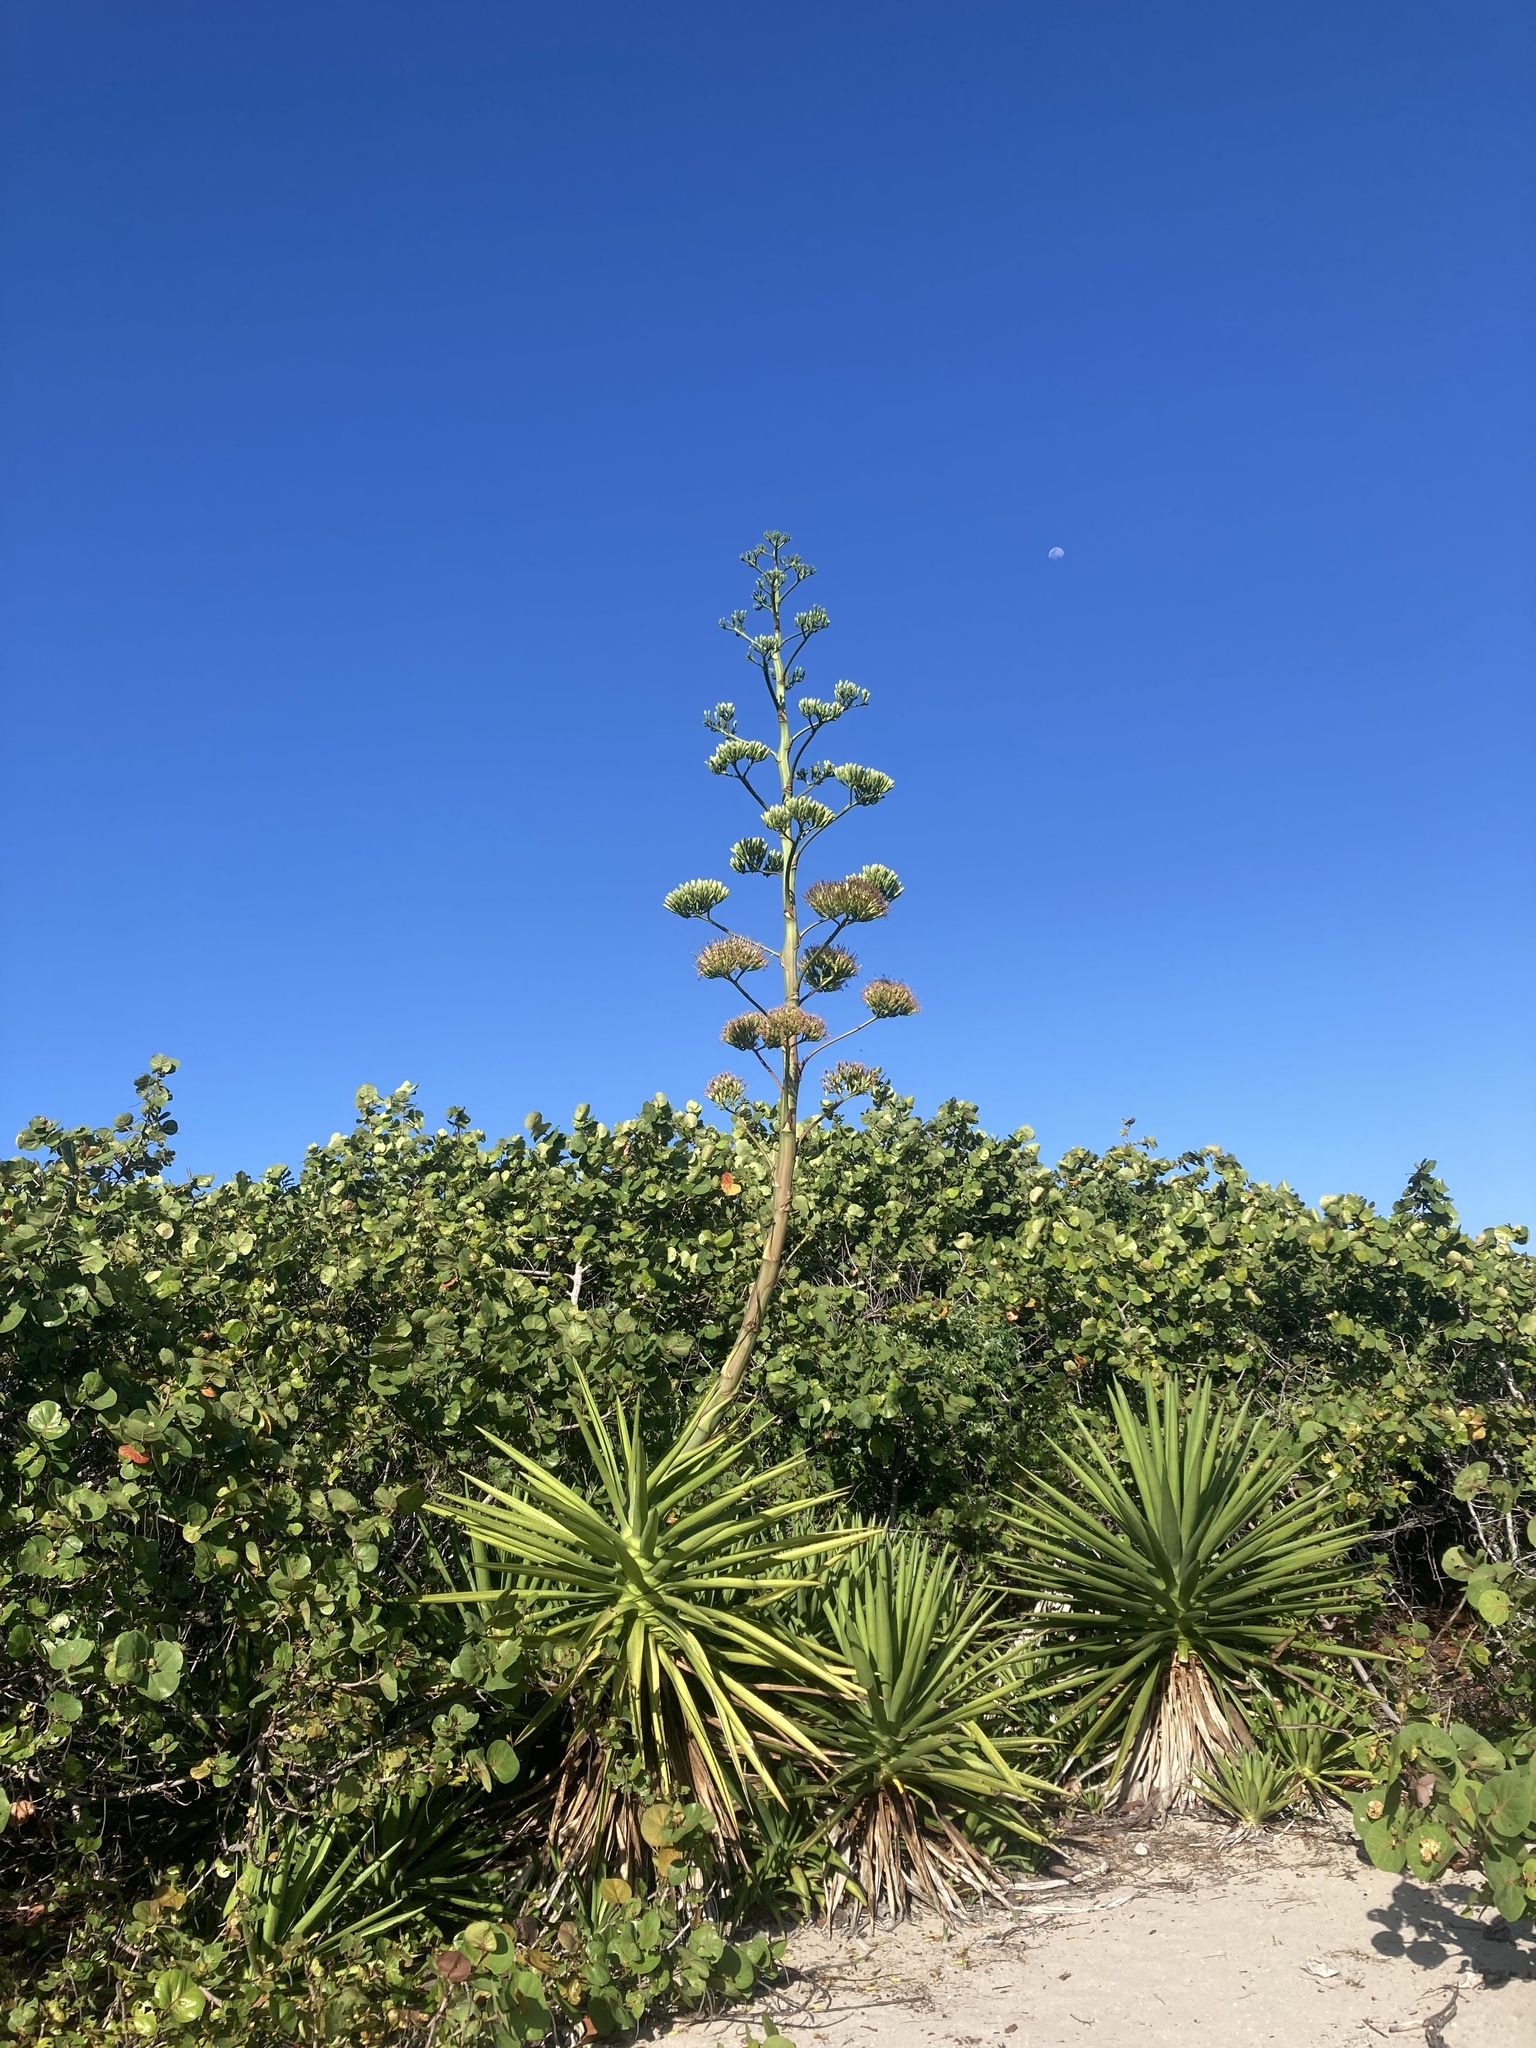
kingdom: Plantae
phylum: Tracheophyta
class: Liliopsida
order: Asparagales
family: Asparagaceae
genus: Agave
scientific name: Agave decipiens
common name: False sisal
